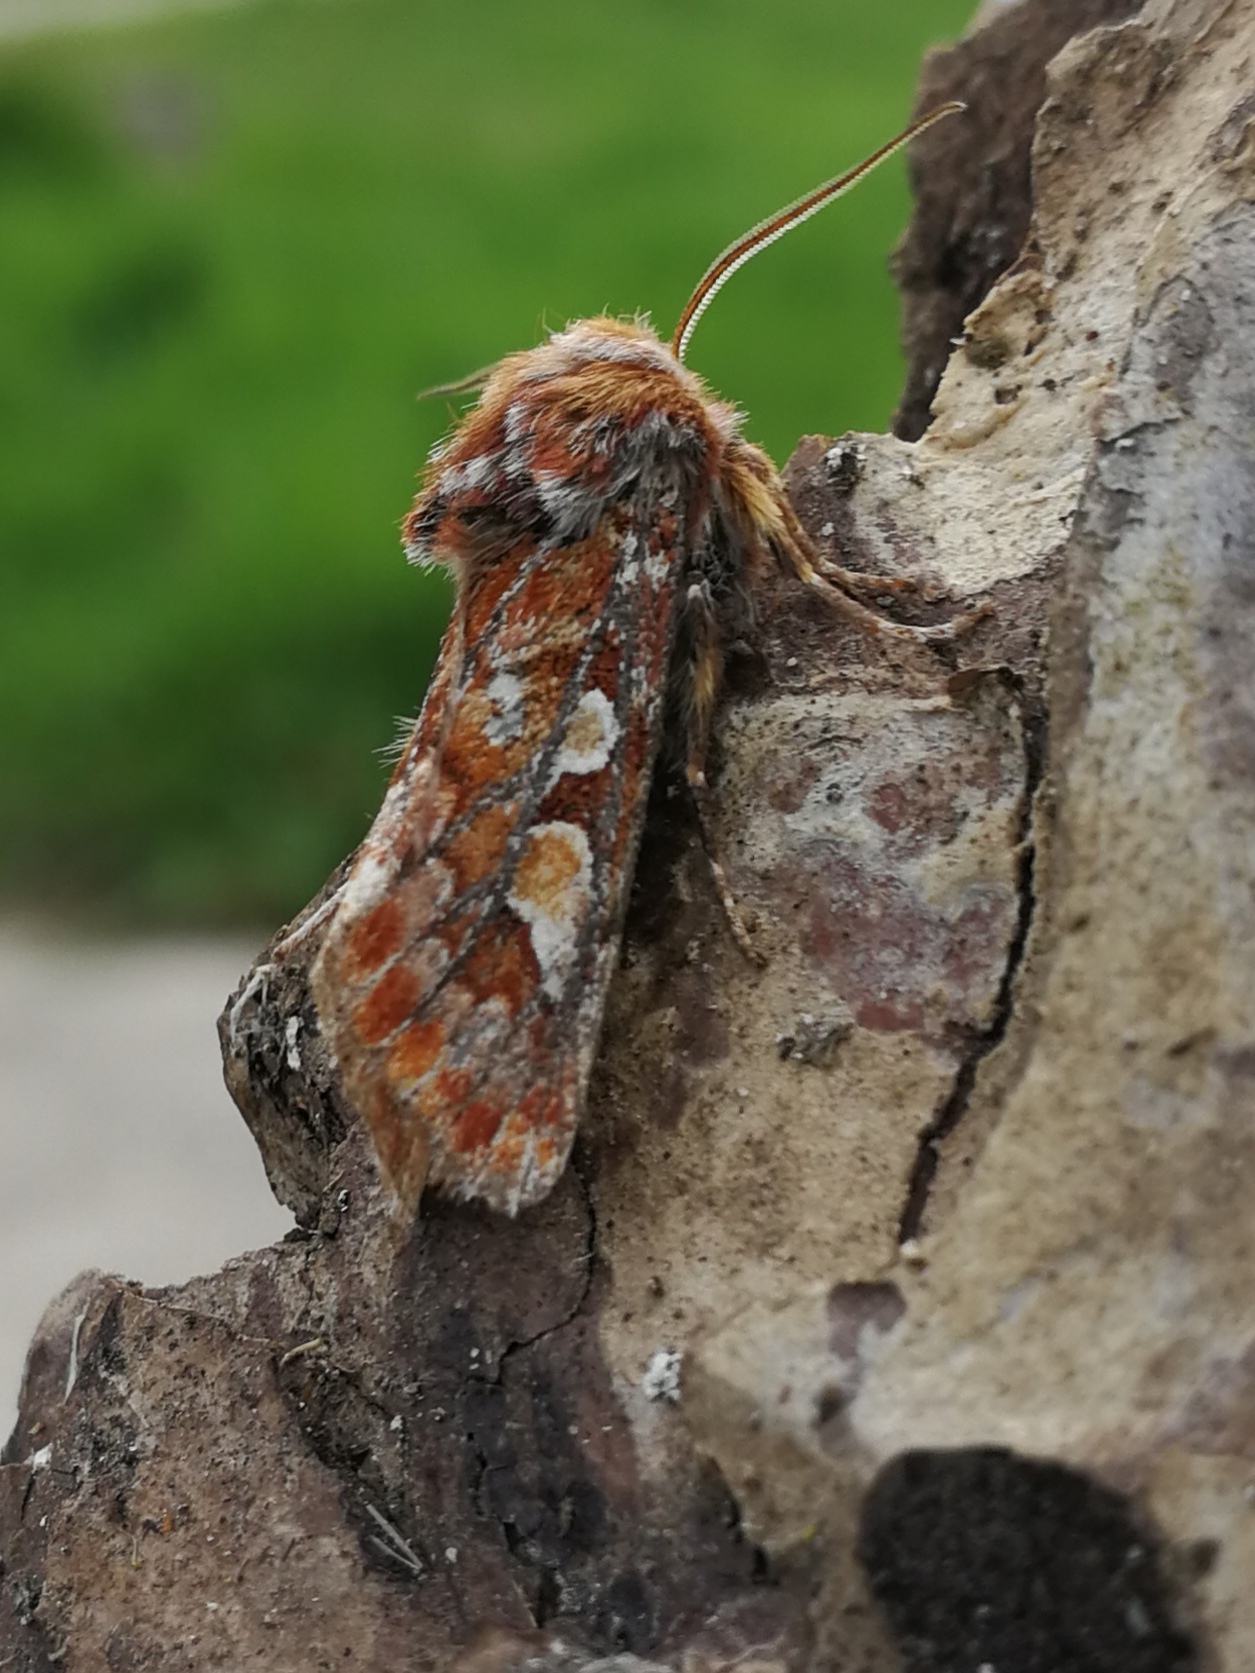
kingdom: Animalia
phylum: Arthropoda
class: Insecta
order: Lepidoptera
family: Noctuidae
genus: Panolis
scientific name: Panolis flammea
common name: Pine beauty
